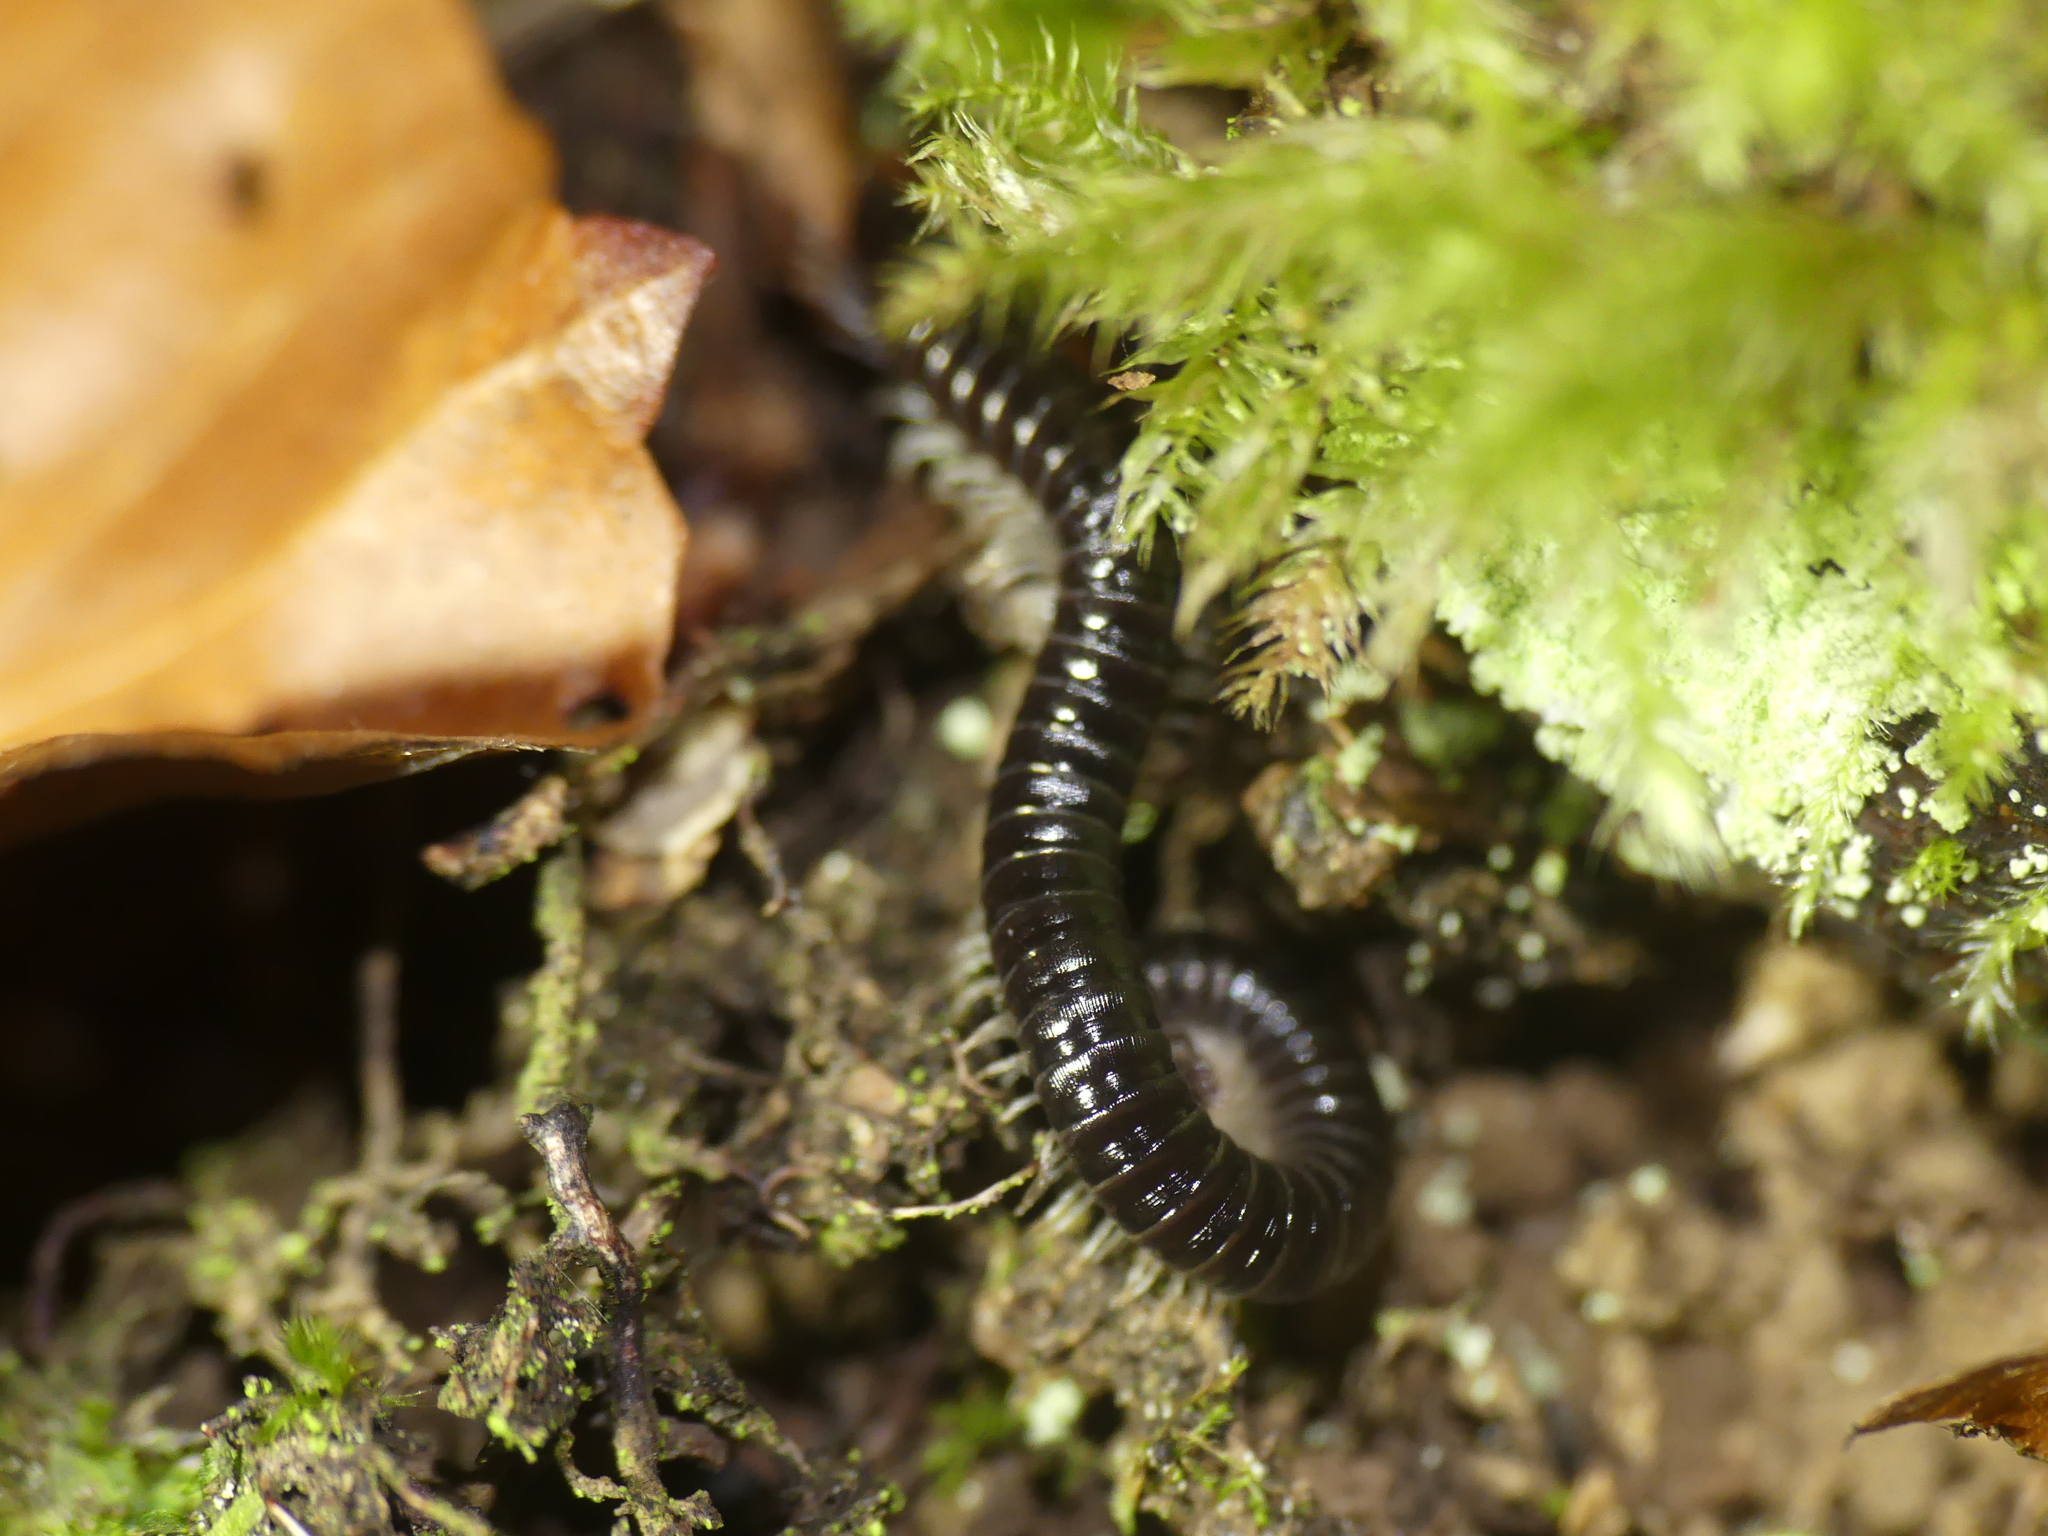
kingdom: Animalia
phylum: Arthropoda
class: Diplopoda
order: Julida
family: Julidae
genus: Tachypodoiulus
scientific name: Tachypodoiulus niger
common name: White-legged snake millipede
